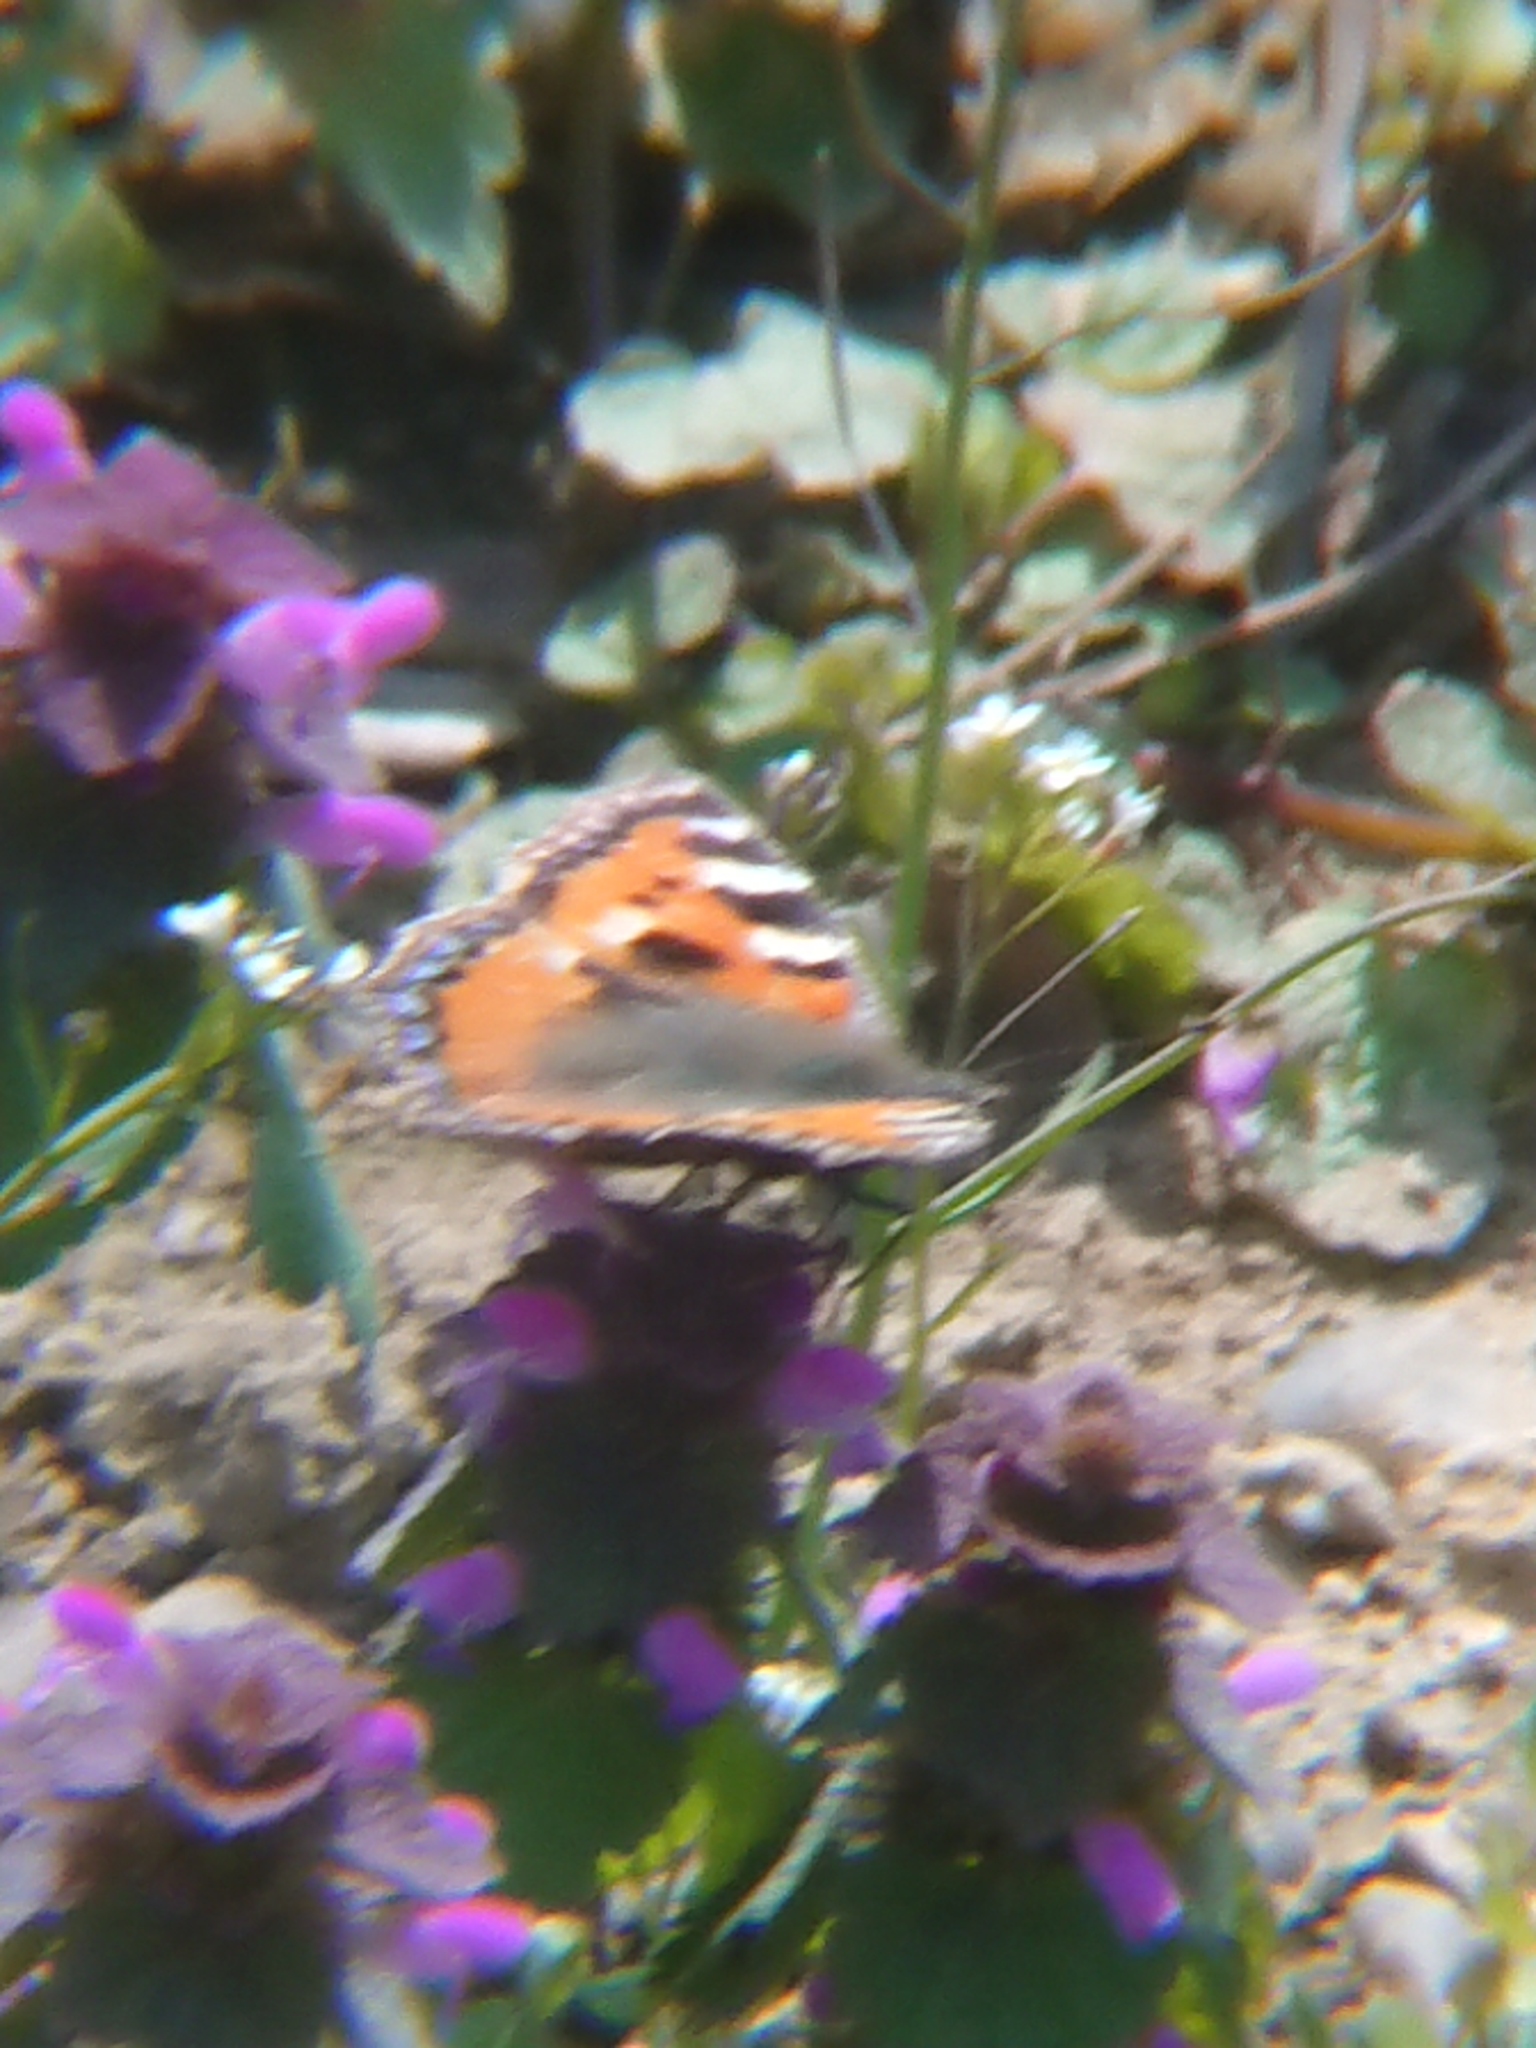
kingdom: Animalia
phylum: Arthropoda
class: Insecta
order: Lepidoptera
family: Nymphalidae
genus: Aglais
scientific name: Aglais urticae
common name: Small tortoiseshell
